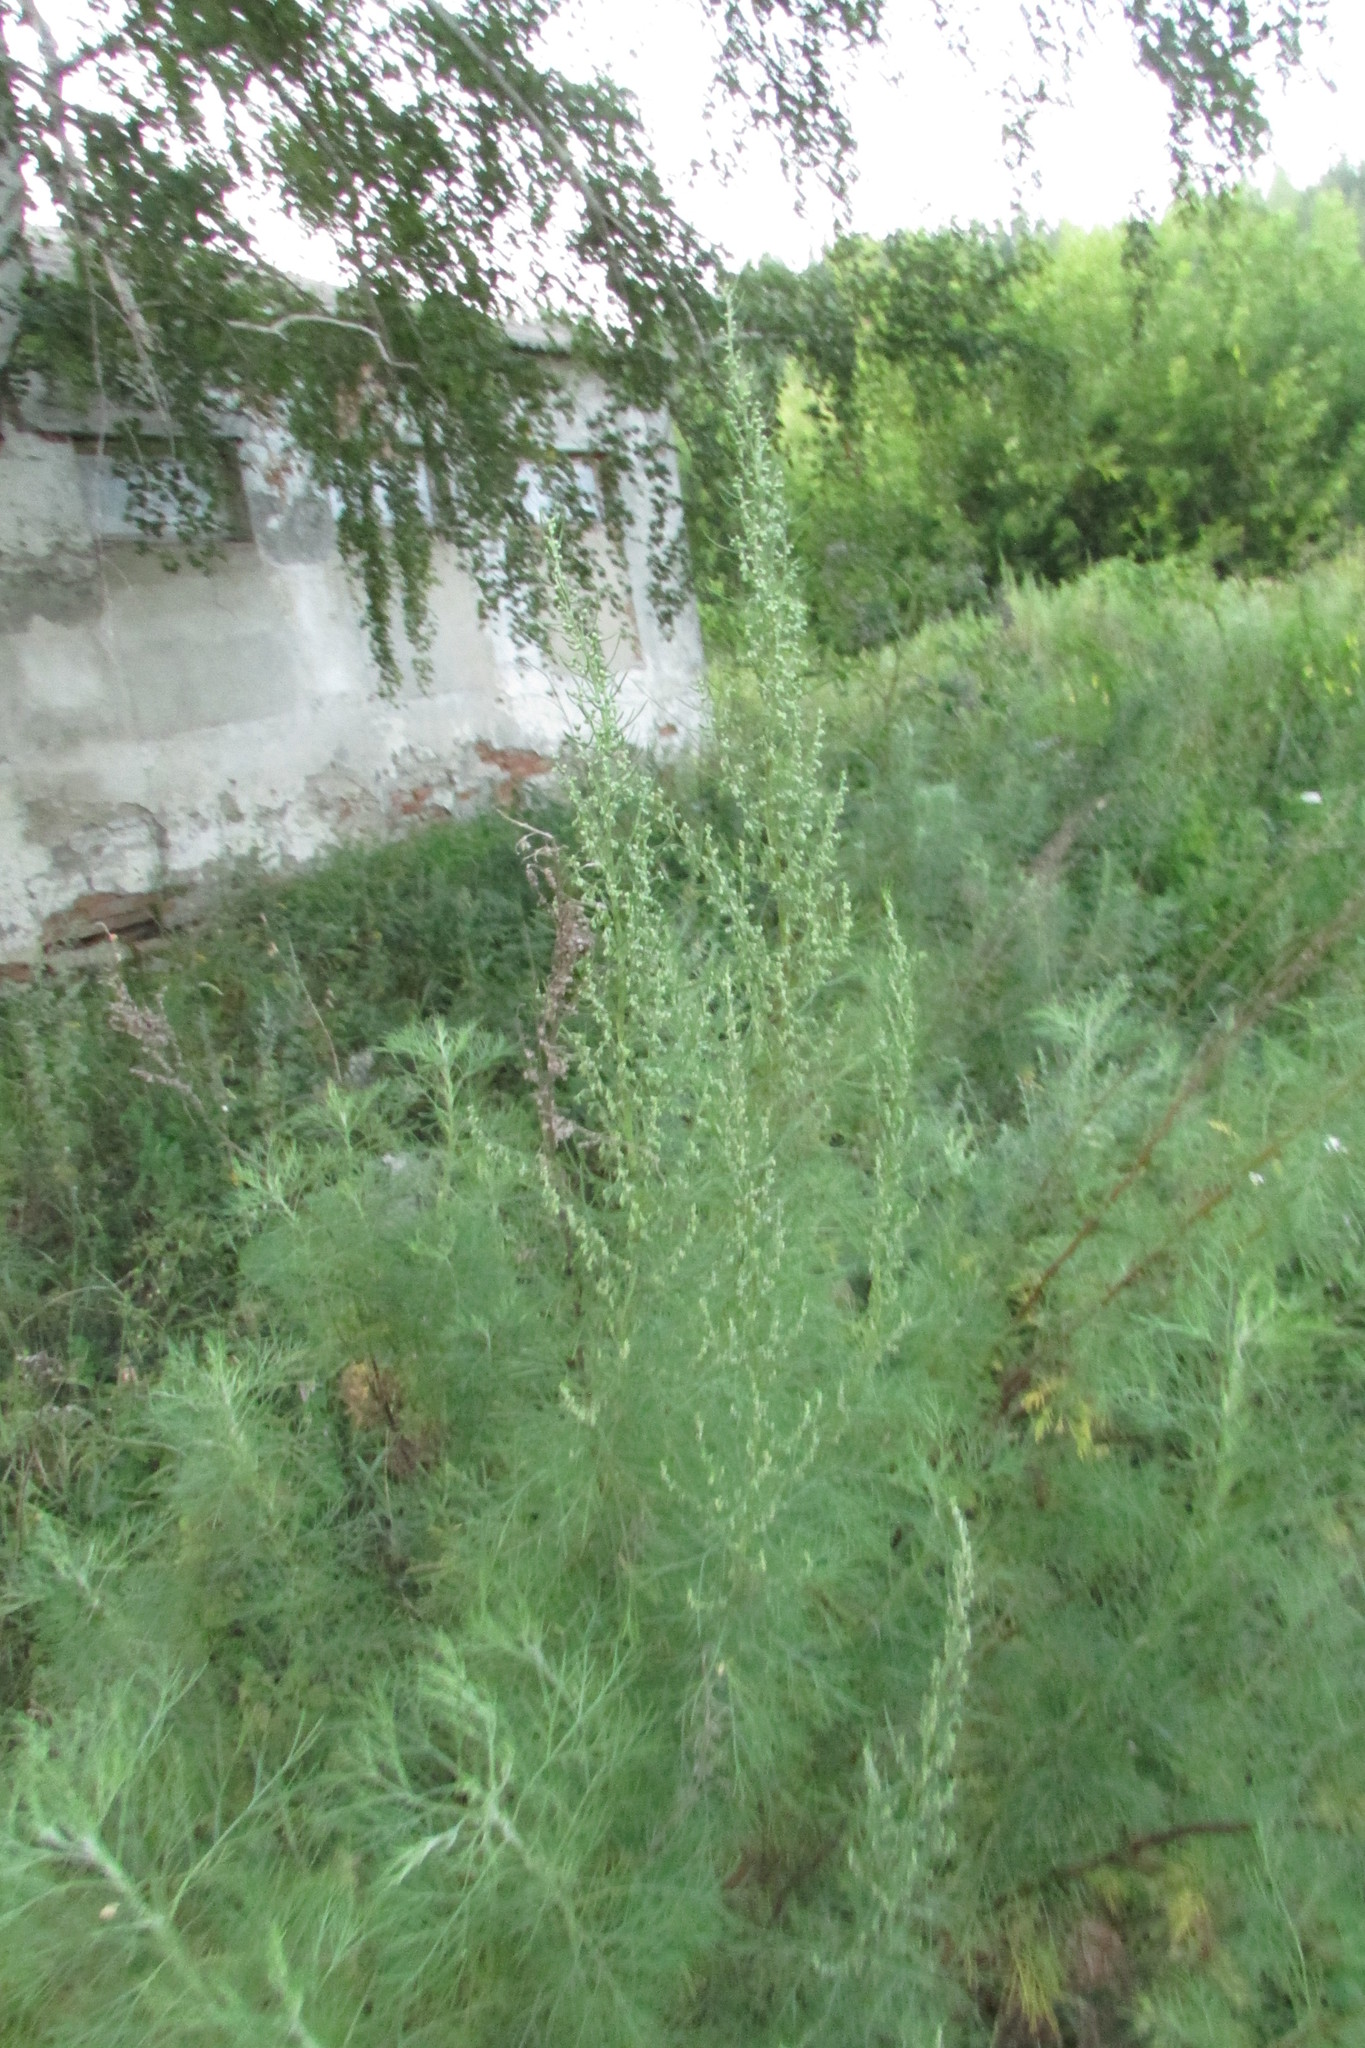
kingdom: Plantae
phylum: Tracheophyta
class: Magnoliopsida
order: Asterales
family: Asteraceae
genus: Artemisia
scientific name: Artemisia abrotanum
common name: Southernwood
